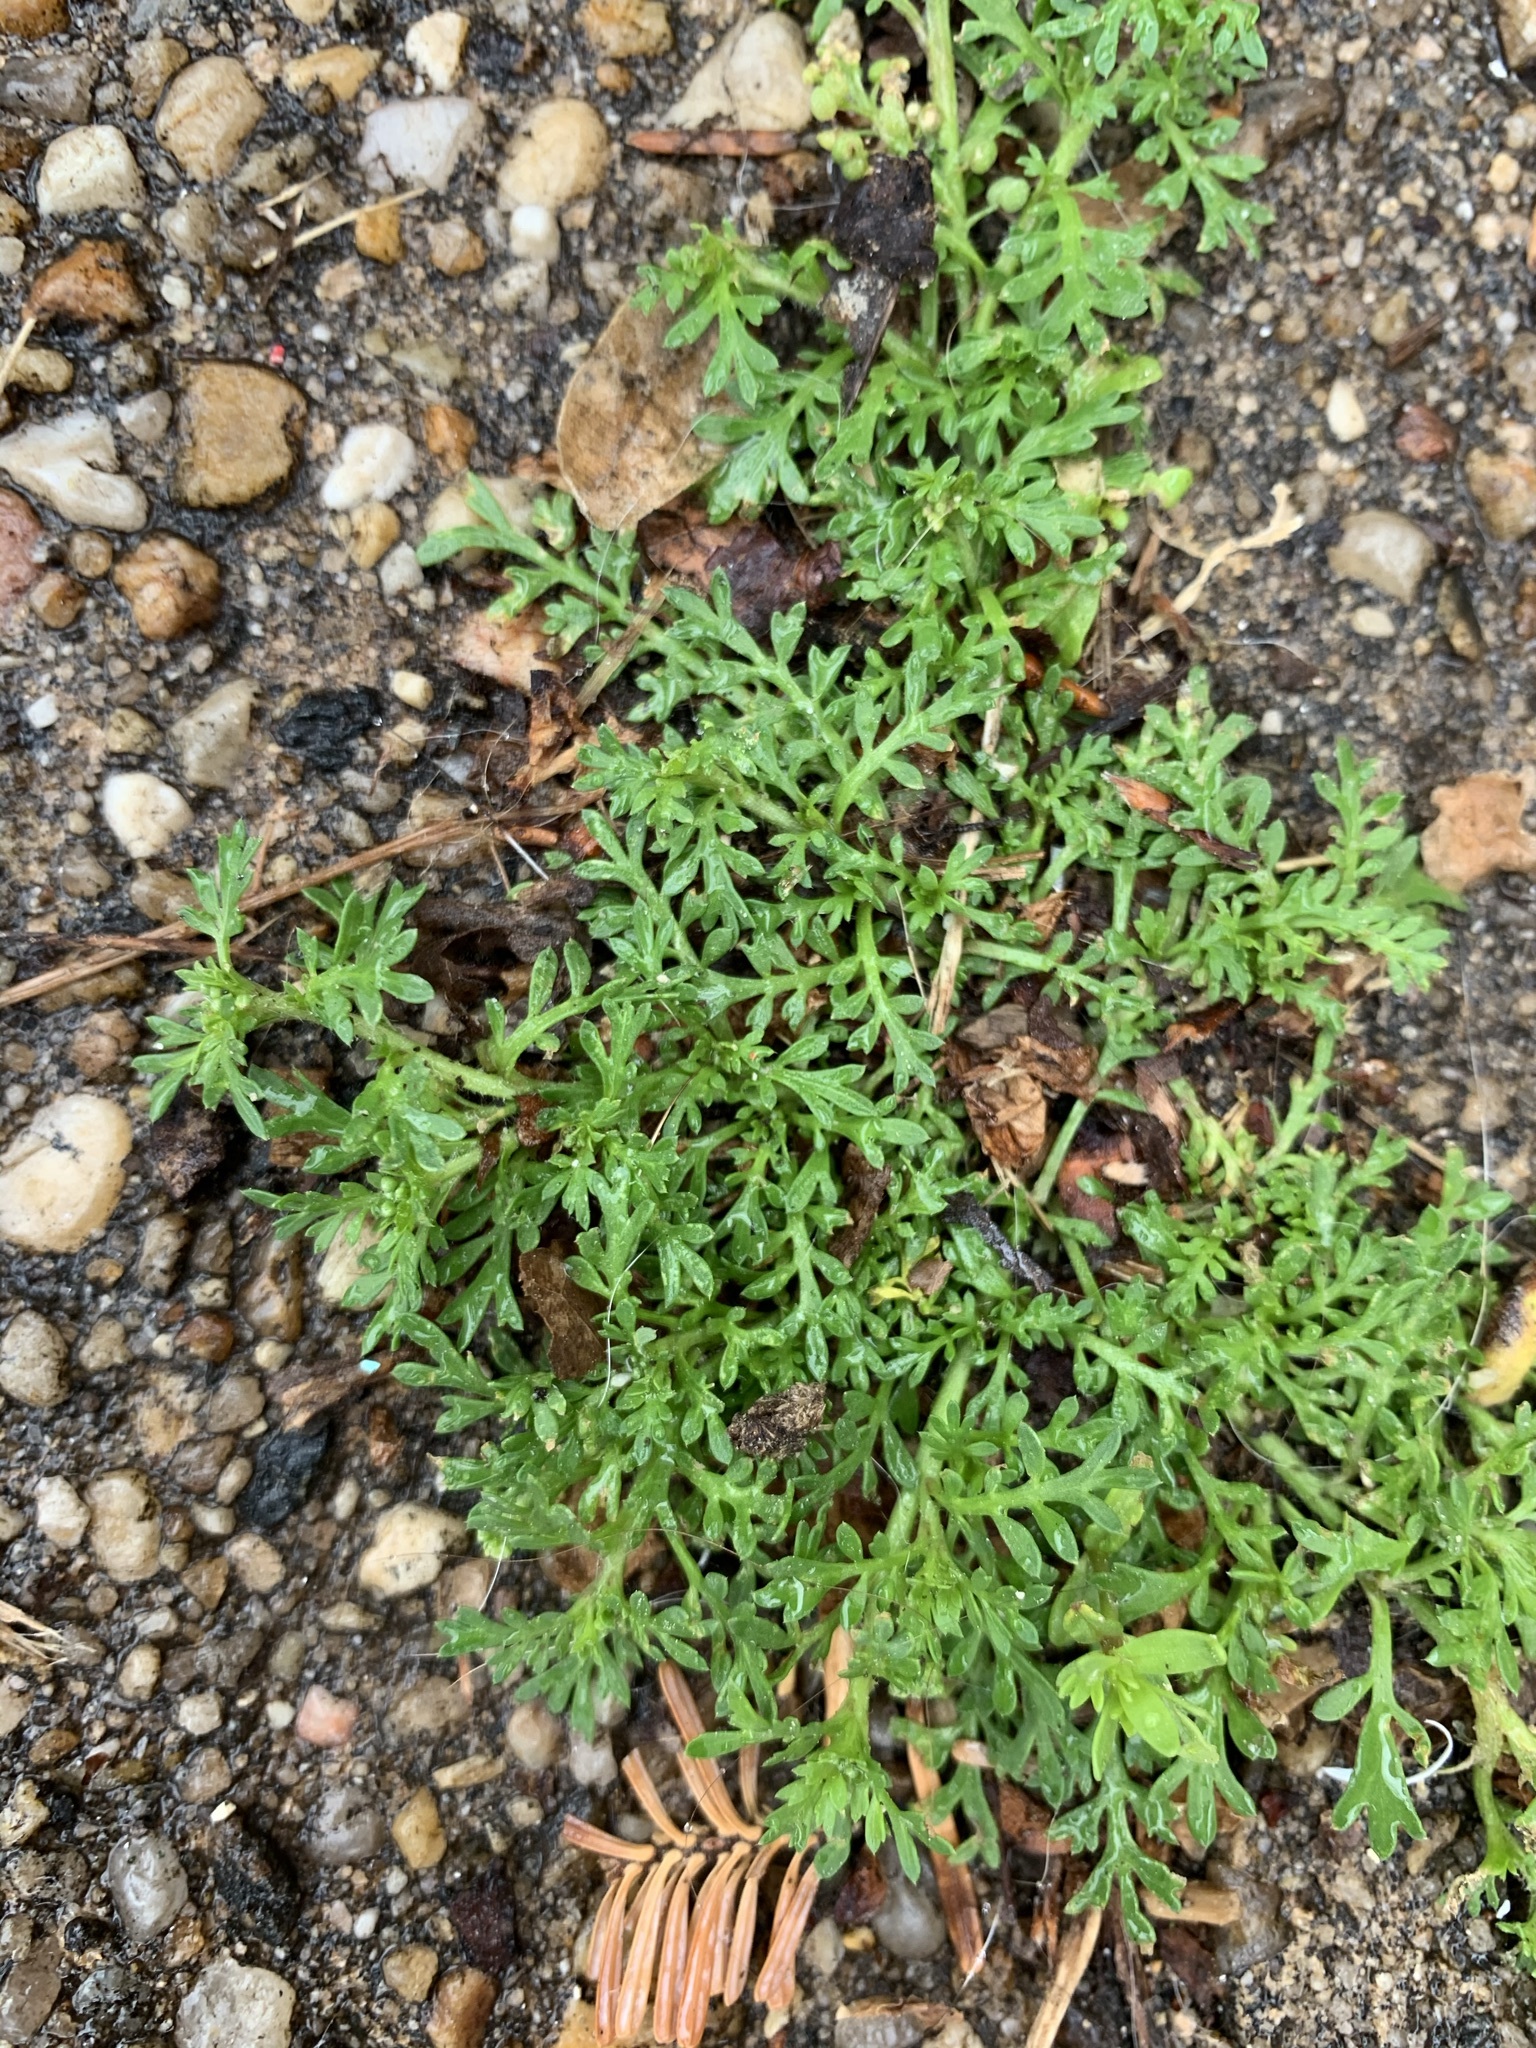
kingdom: Plantae
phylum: Tracheophyta
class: Magnoliopsida
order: Brassicales
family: Brassicaceae
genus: Lepidium
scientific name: Lepidium didymum
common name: Lesser swinecress
